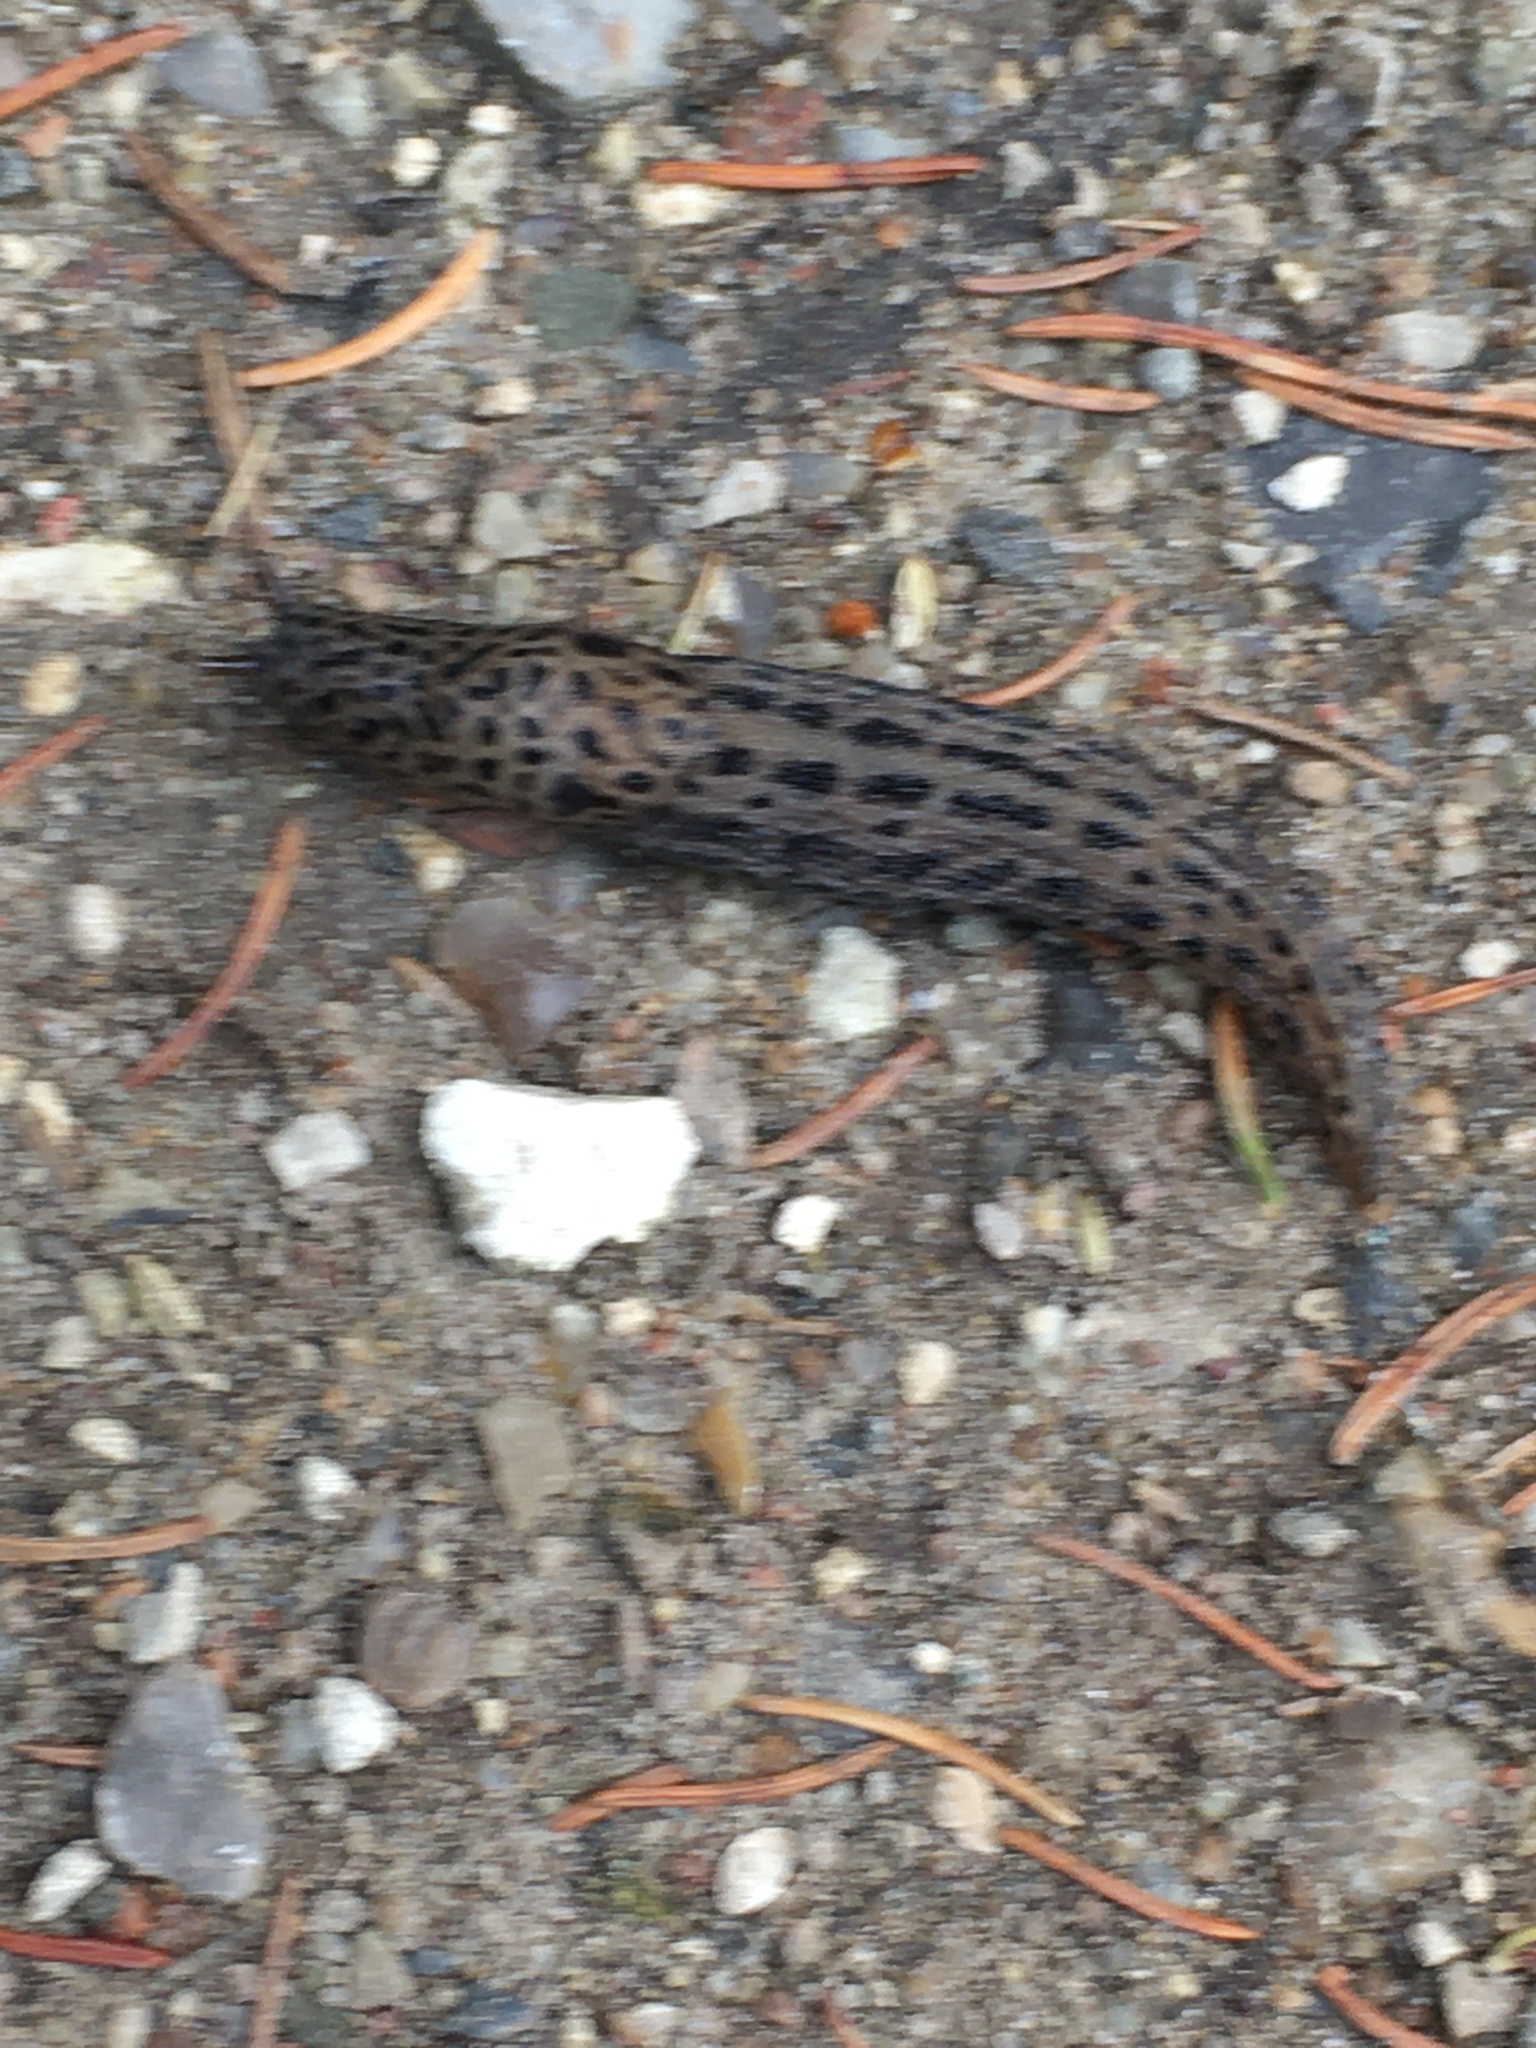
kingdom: Animalia
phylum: Mollusca
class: Gastropoda
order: Stylommatophora
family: Limacidae
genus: Limax
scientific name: Limax maximus
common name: Great grey slug
